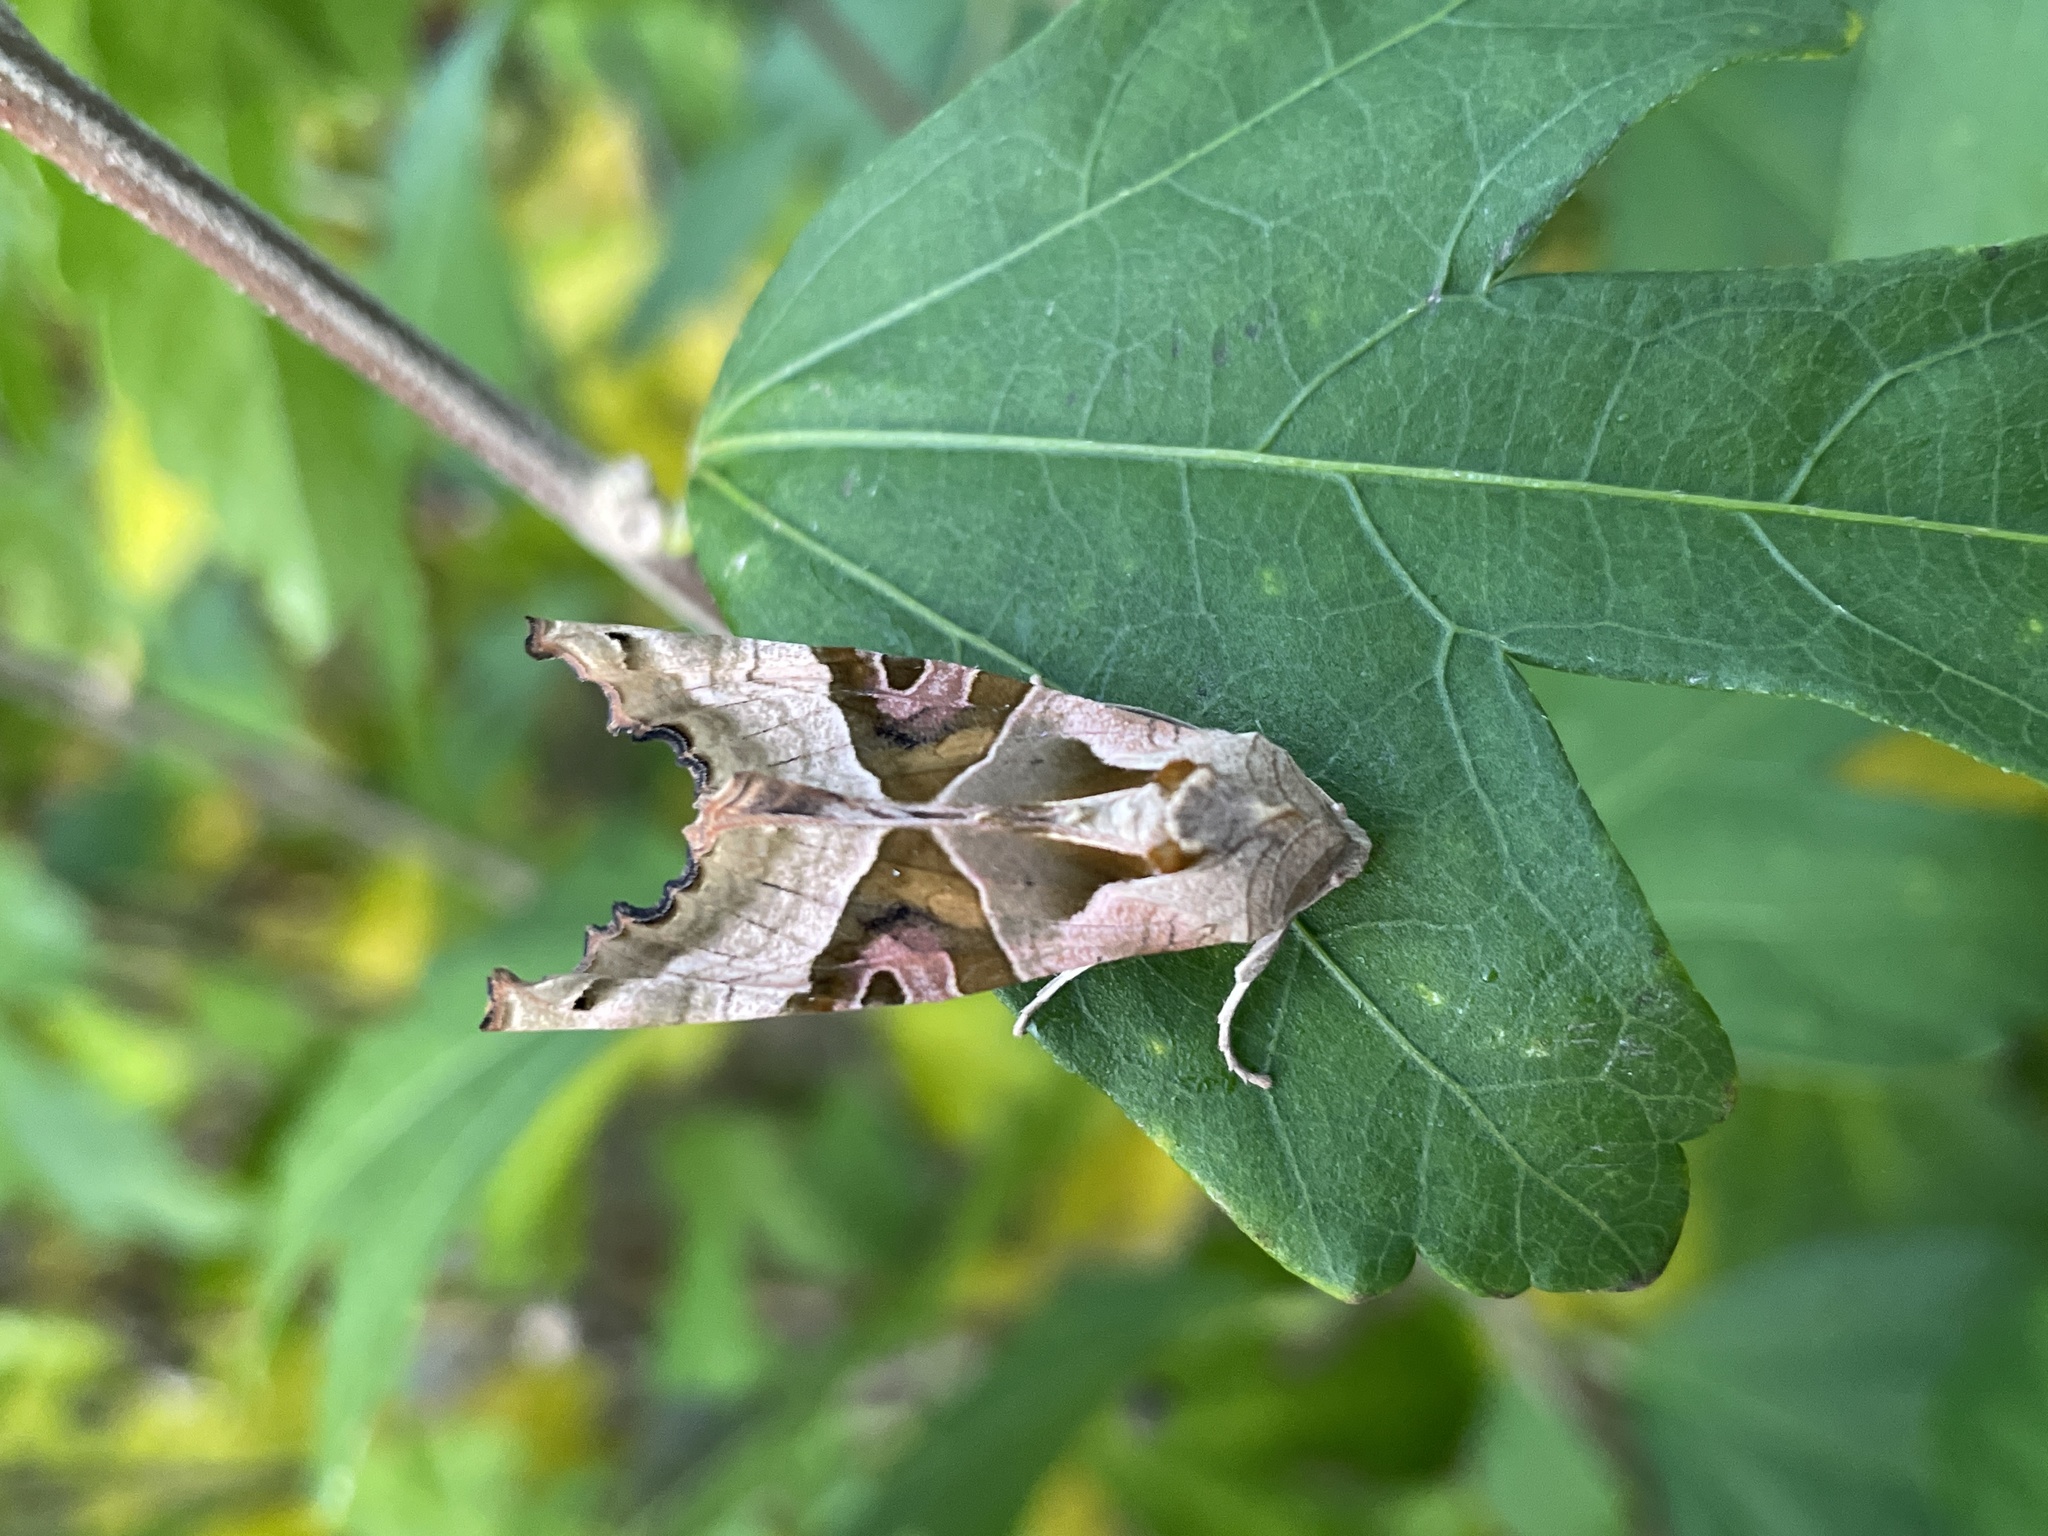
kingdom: Animalia
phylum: Arthropoda
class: Insecta
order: Lepidoptera
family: Noctuidae
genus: Phlogophora
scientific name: Phlogophora meticulosa
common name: Angle shades
